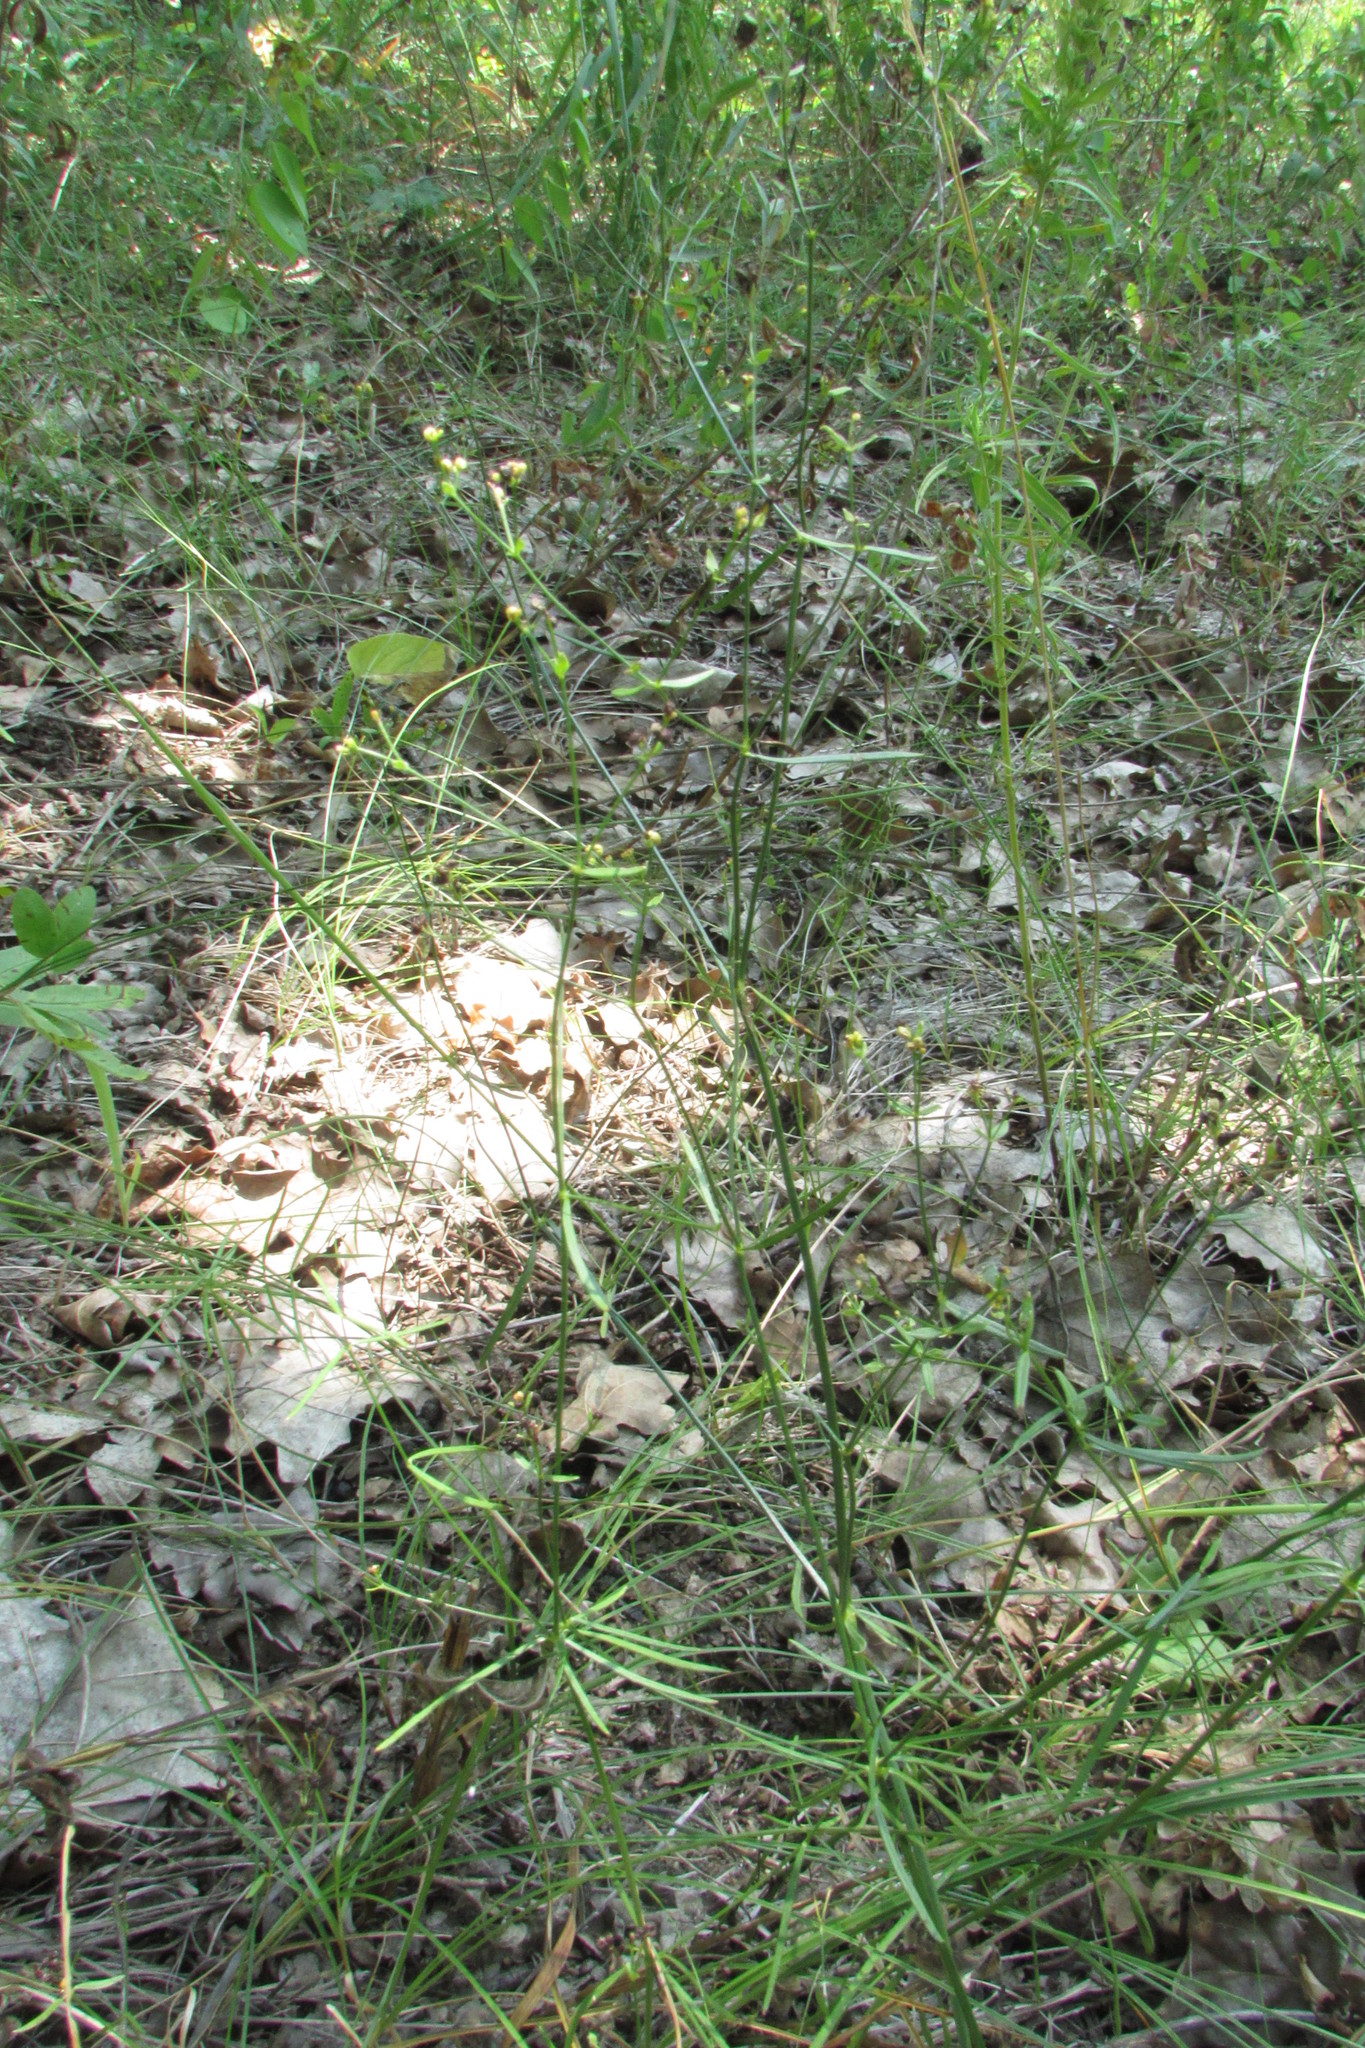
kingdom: Plantae
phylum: Tracheophyta
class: Magnoliopsida
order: Gentianales
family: Rubiaceae
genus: Asperula
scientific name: Asperula tinctoria
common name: Dyer's woodruff
